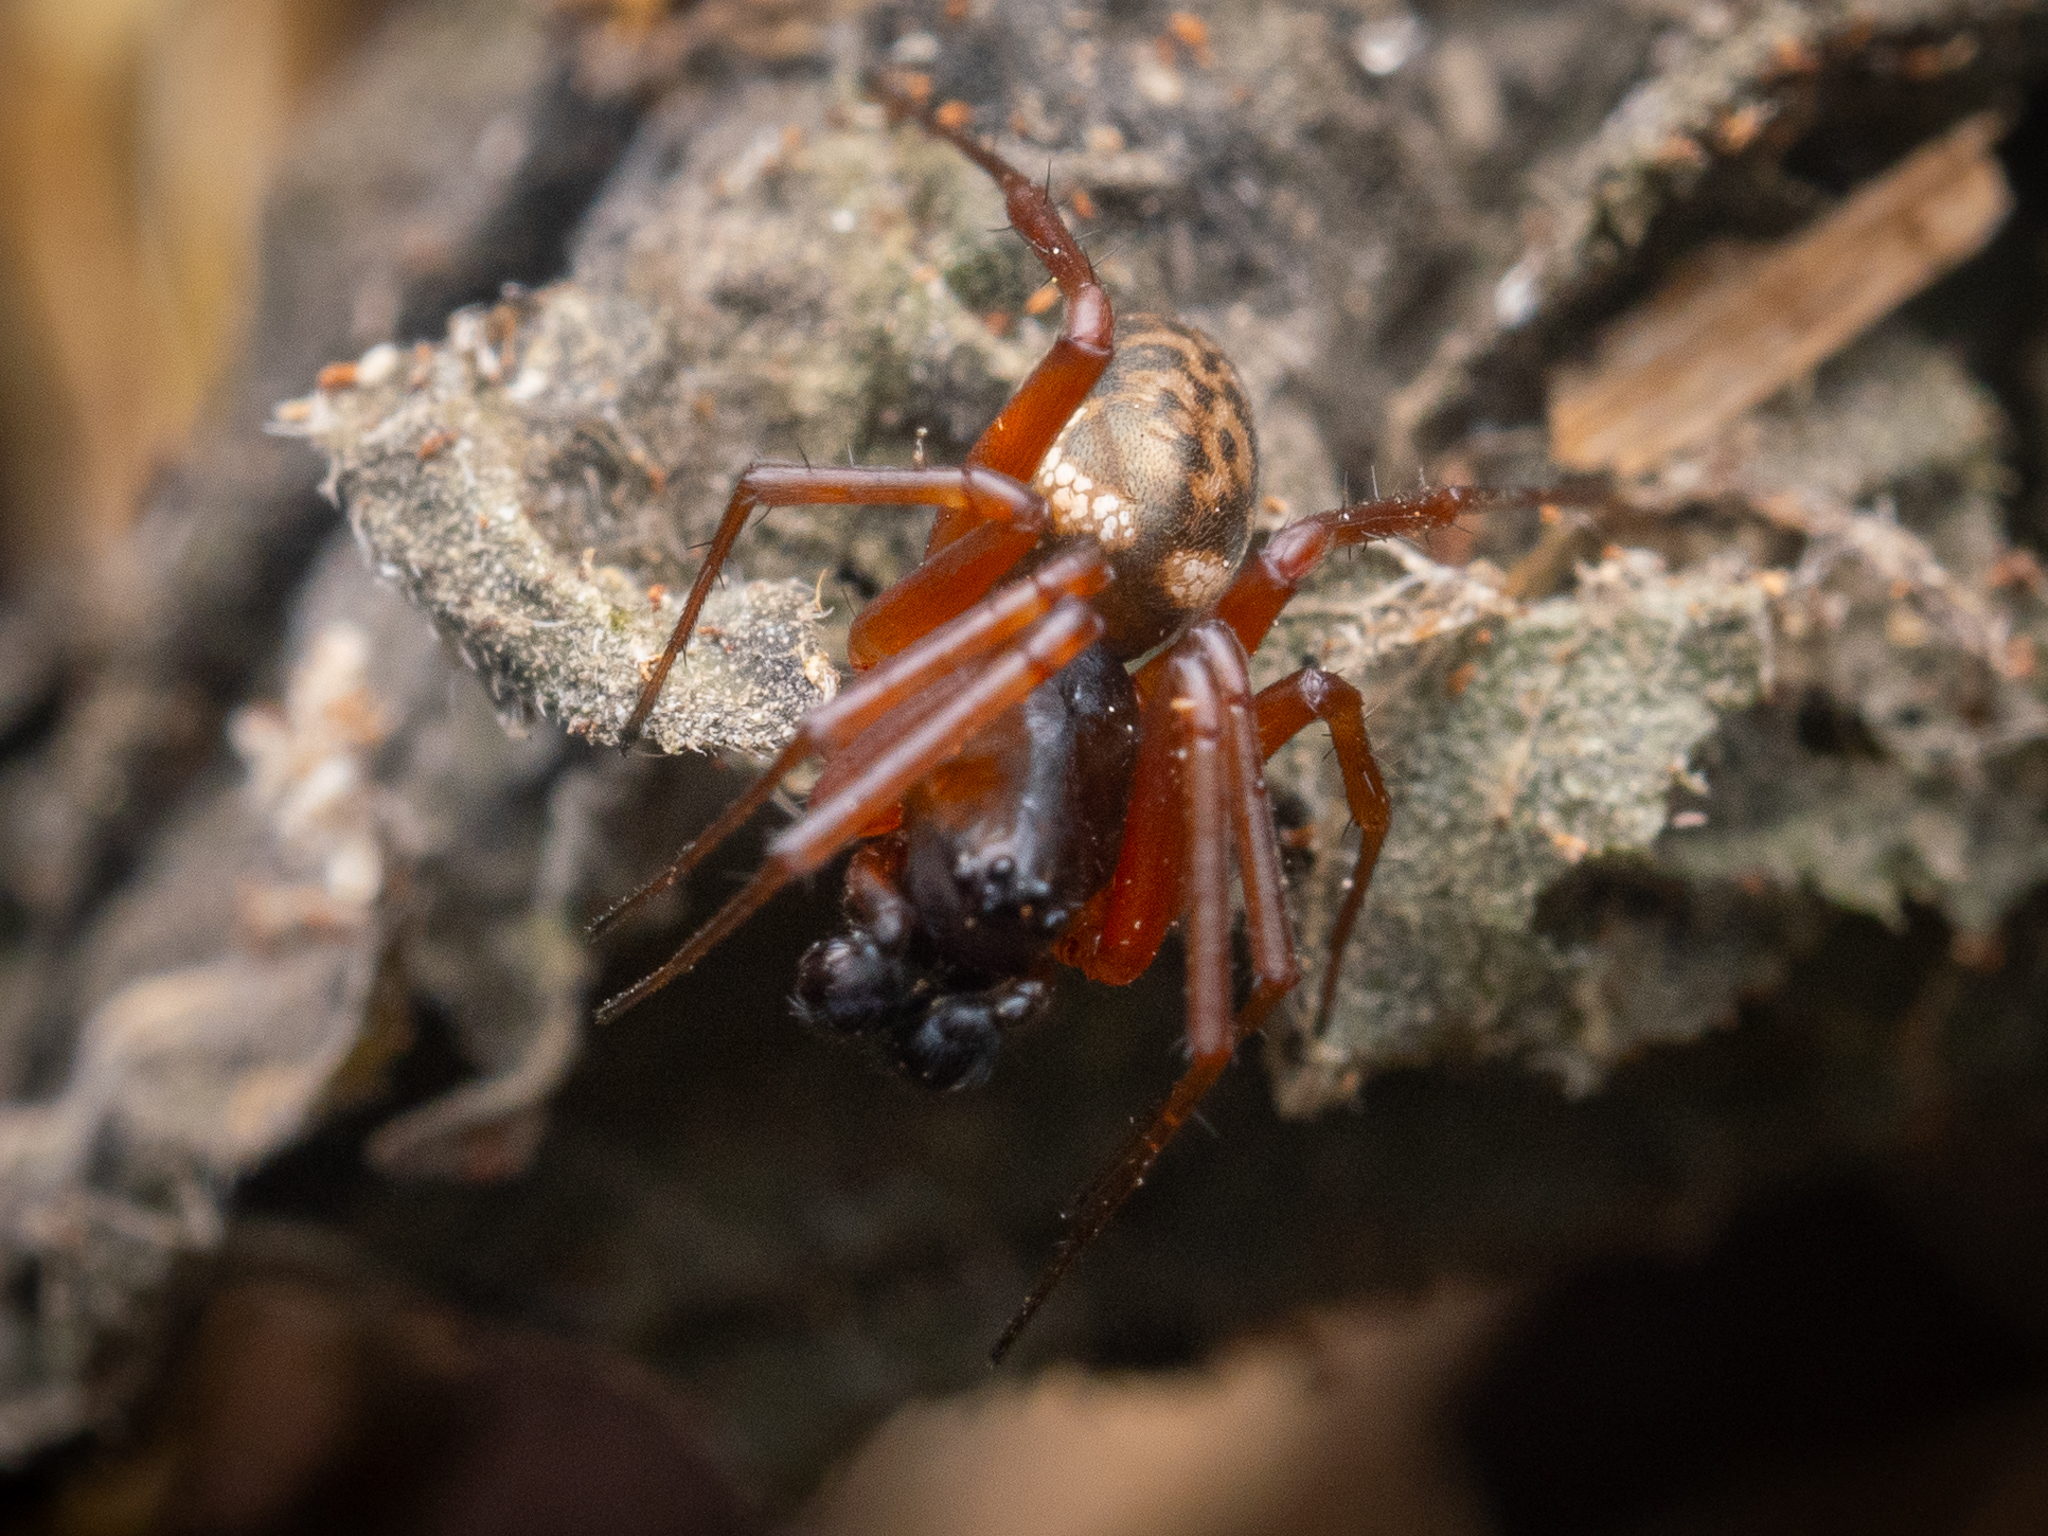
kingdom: Animalia
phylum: Arthropoda
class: Arachnida
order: Araneae
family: Linyphiidae
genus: Neriene
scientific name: Neriene clathrata
